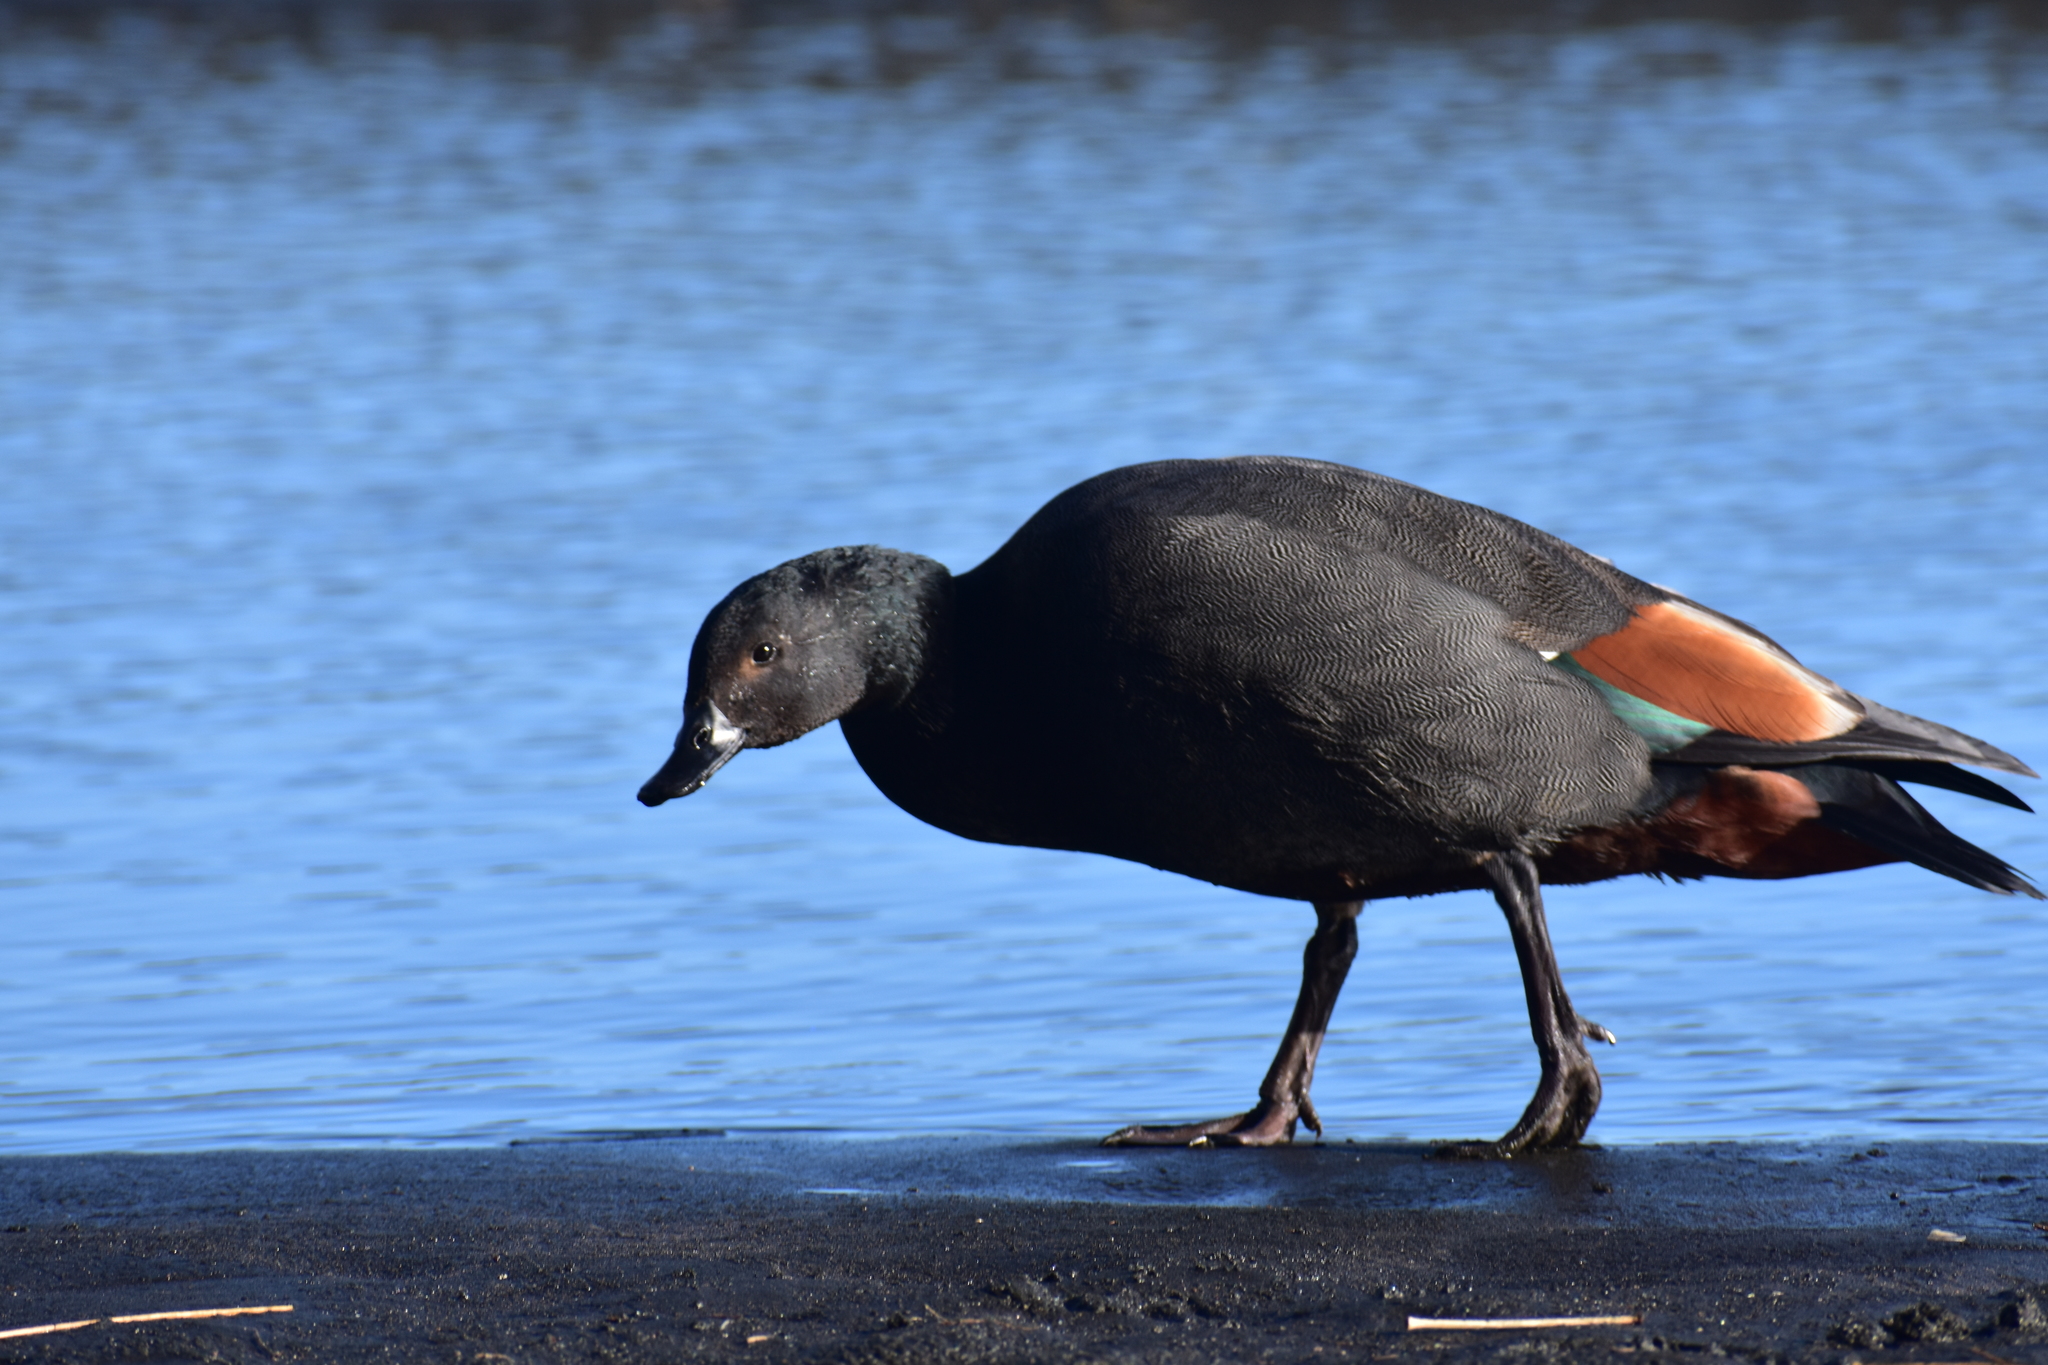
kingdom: Animalia
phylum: Chordata
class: Aves
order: Anseriformes
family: Anatidae
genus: Tadorna
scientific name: Tadorna variegata
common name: Paradise shelduck
